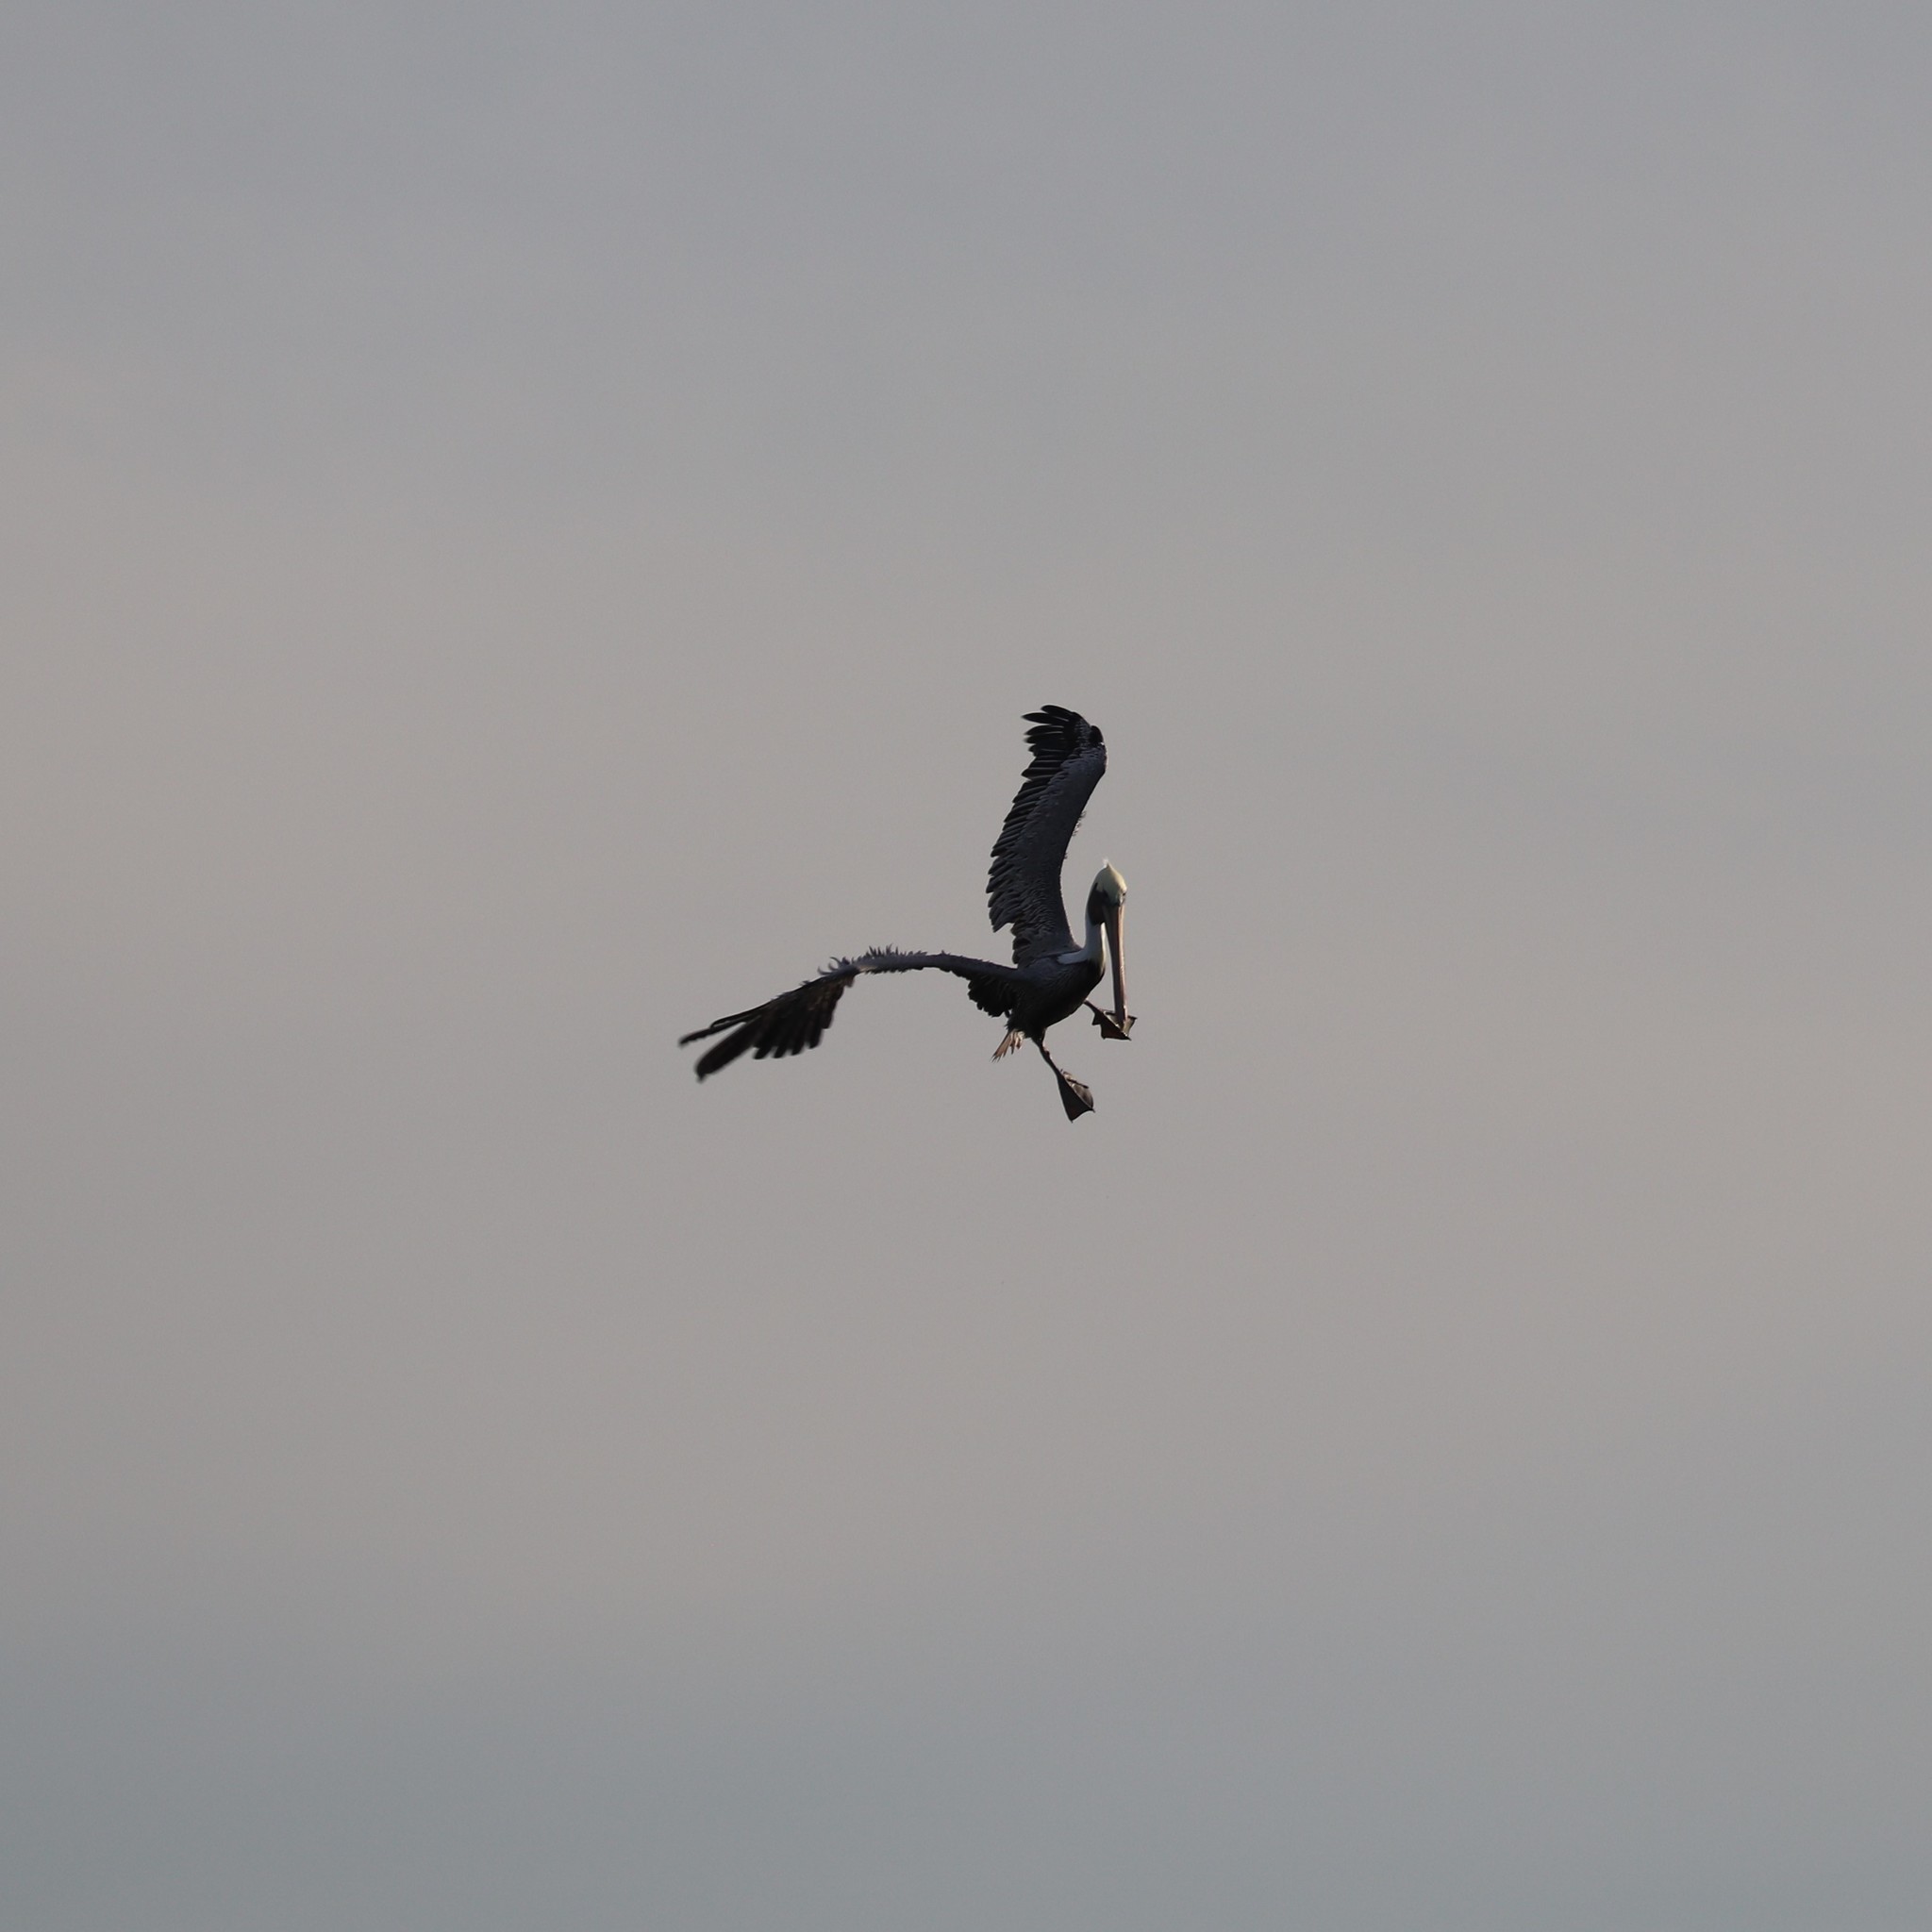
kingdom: Animalia
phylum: Chordata
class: Aves
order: Pelecaniformes
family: Pelecanidae
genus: Pelecanus
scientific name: Pelecanus occidentalis
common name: Brown pelican
